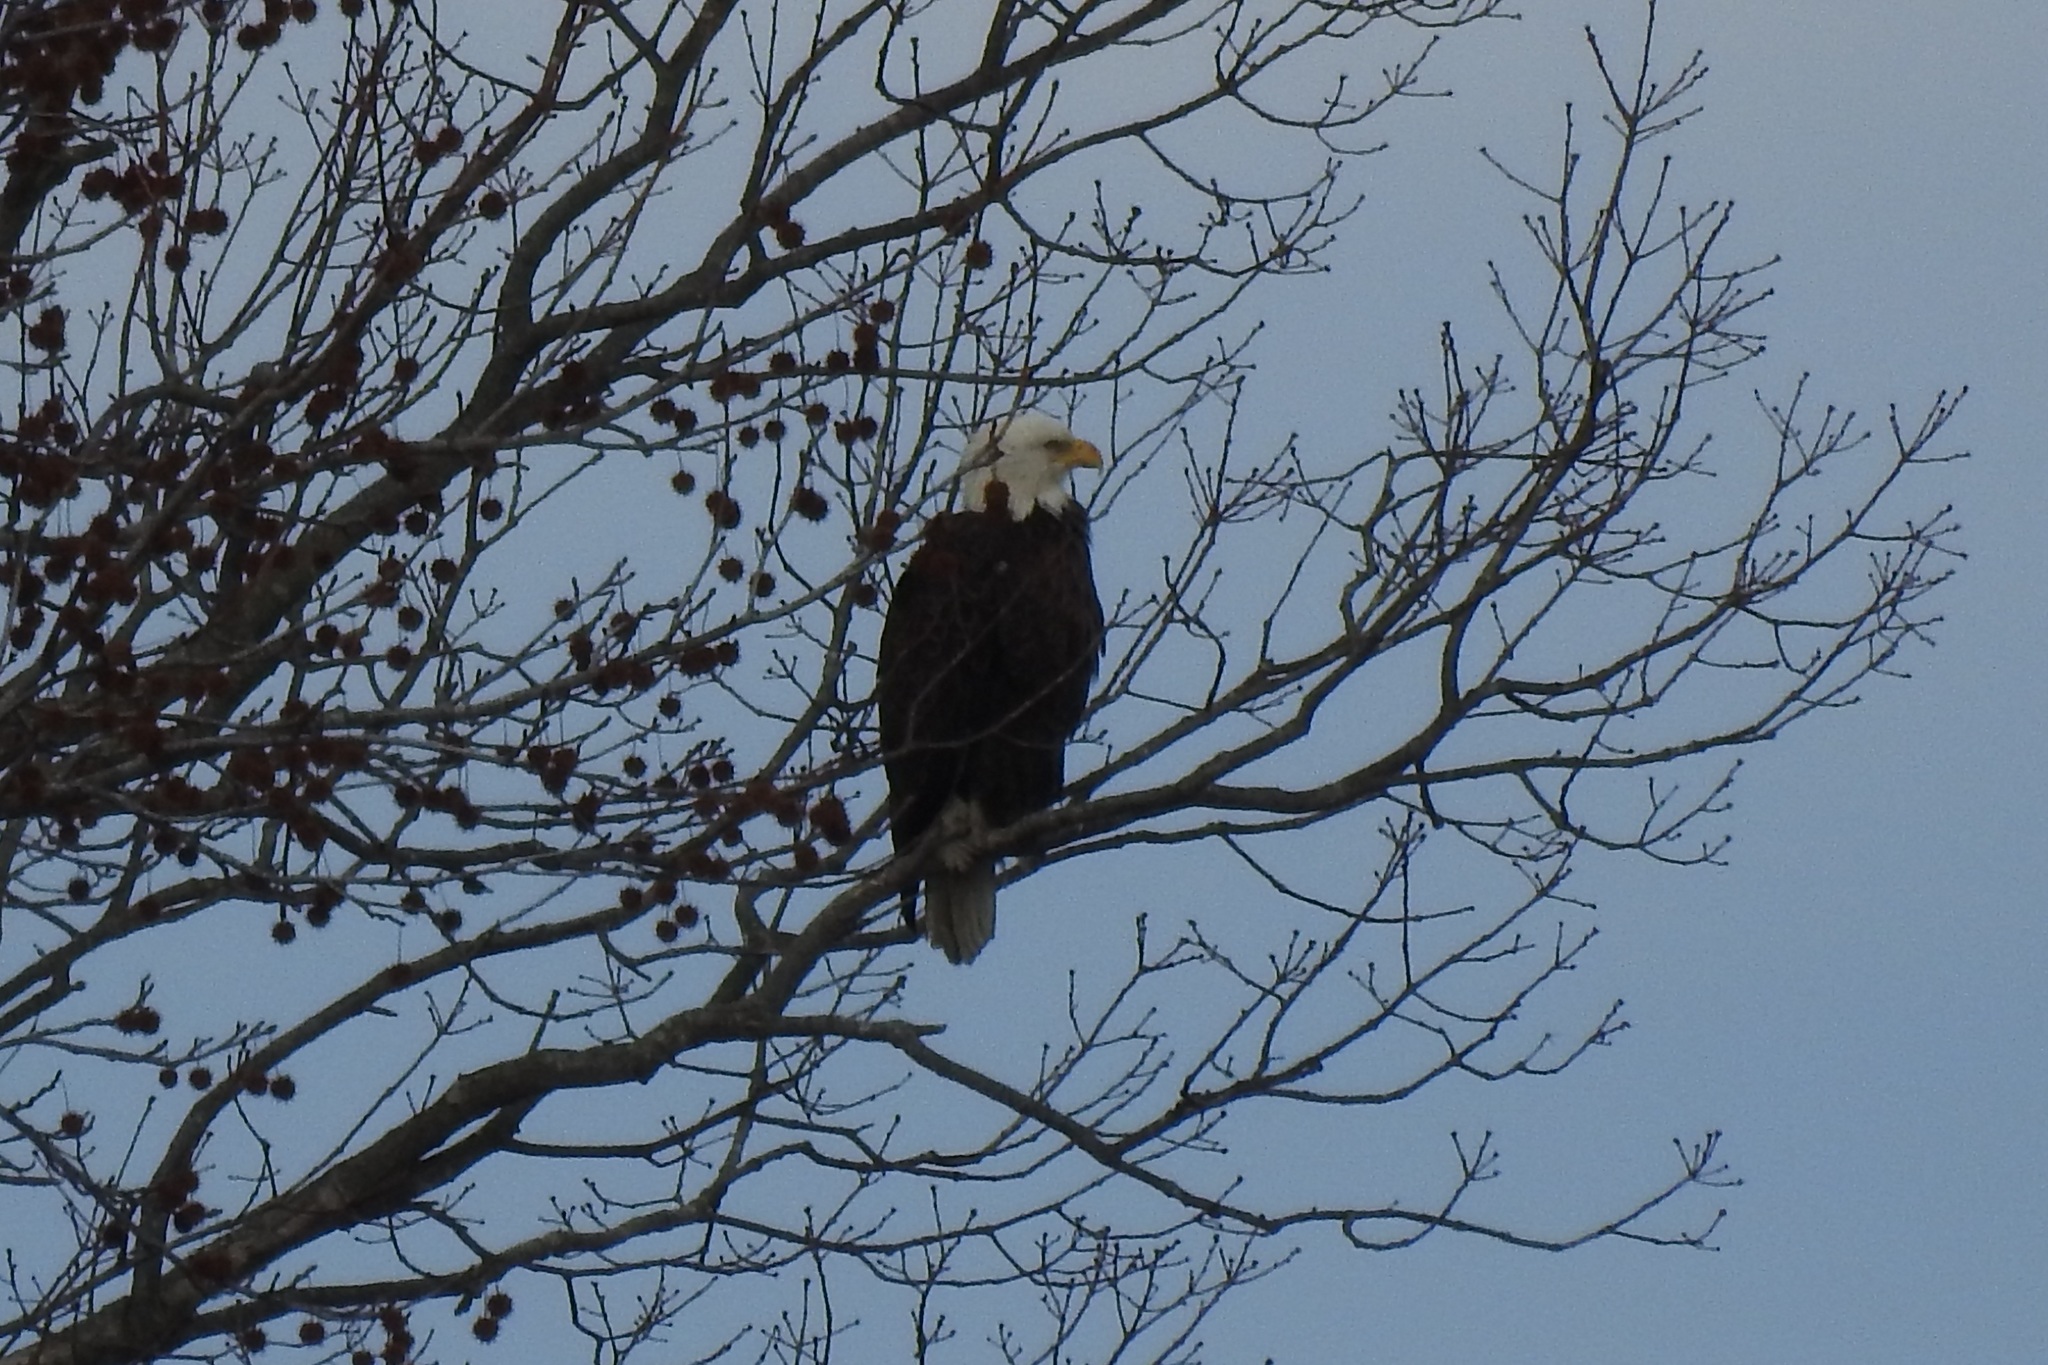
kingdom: Animalia
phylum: Chordata
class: Aves
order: Accipitriformes
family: Accipitridae
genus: Haliaeetus
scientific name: Haliaeetus leucocephalus
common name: Bald eagle
